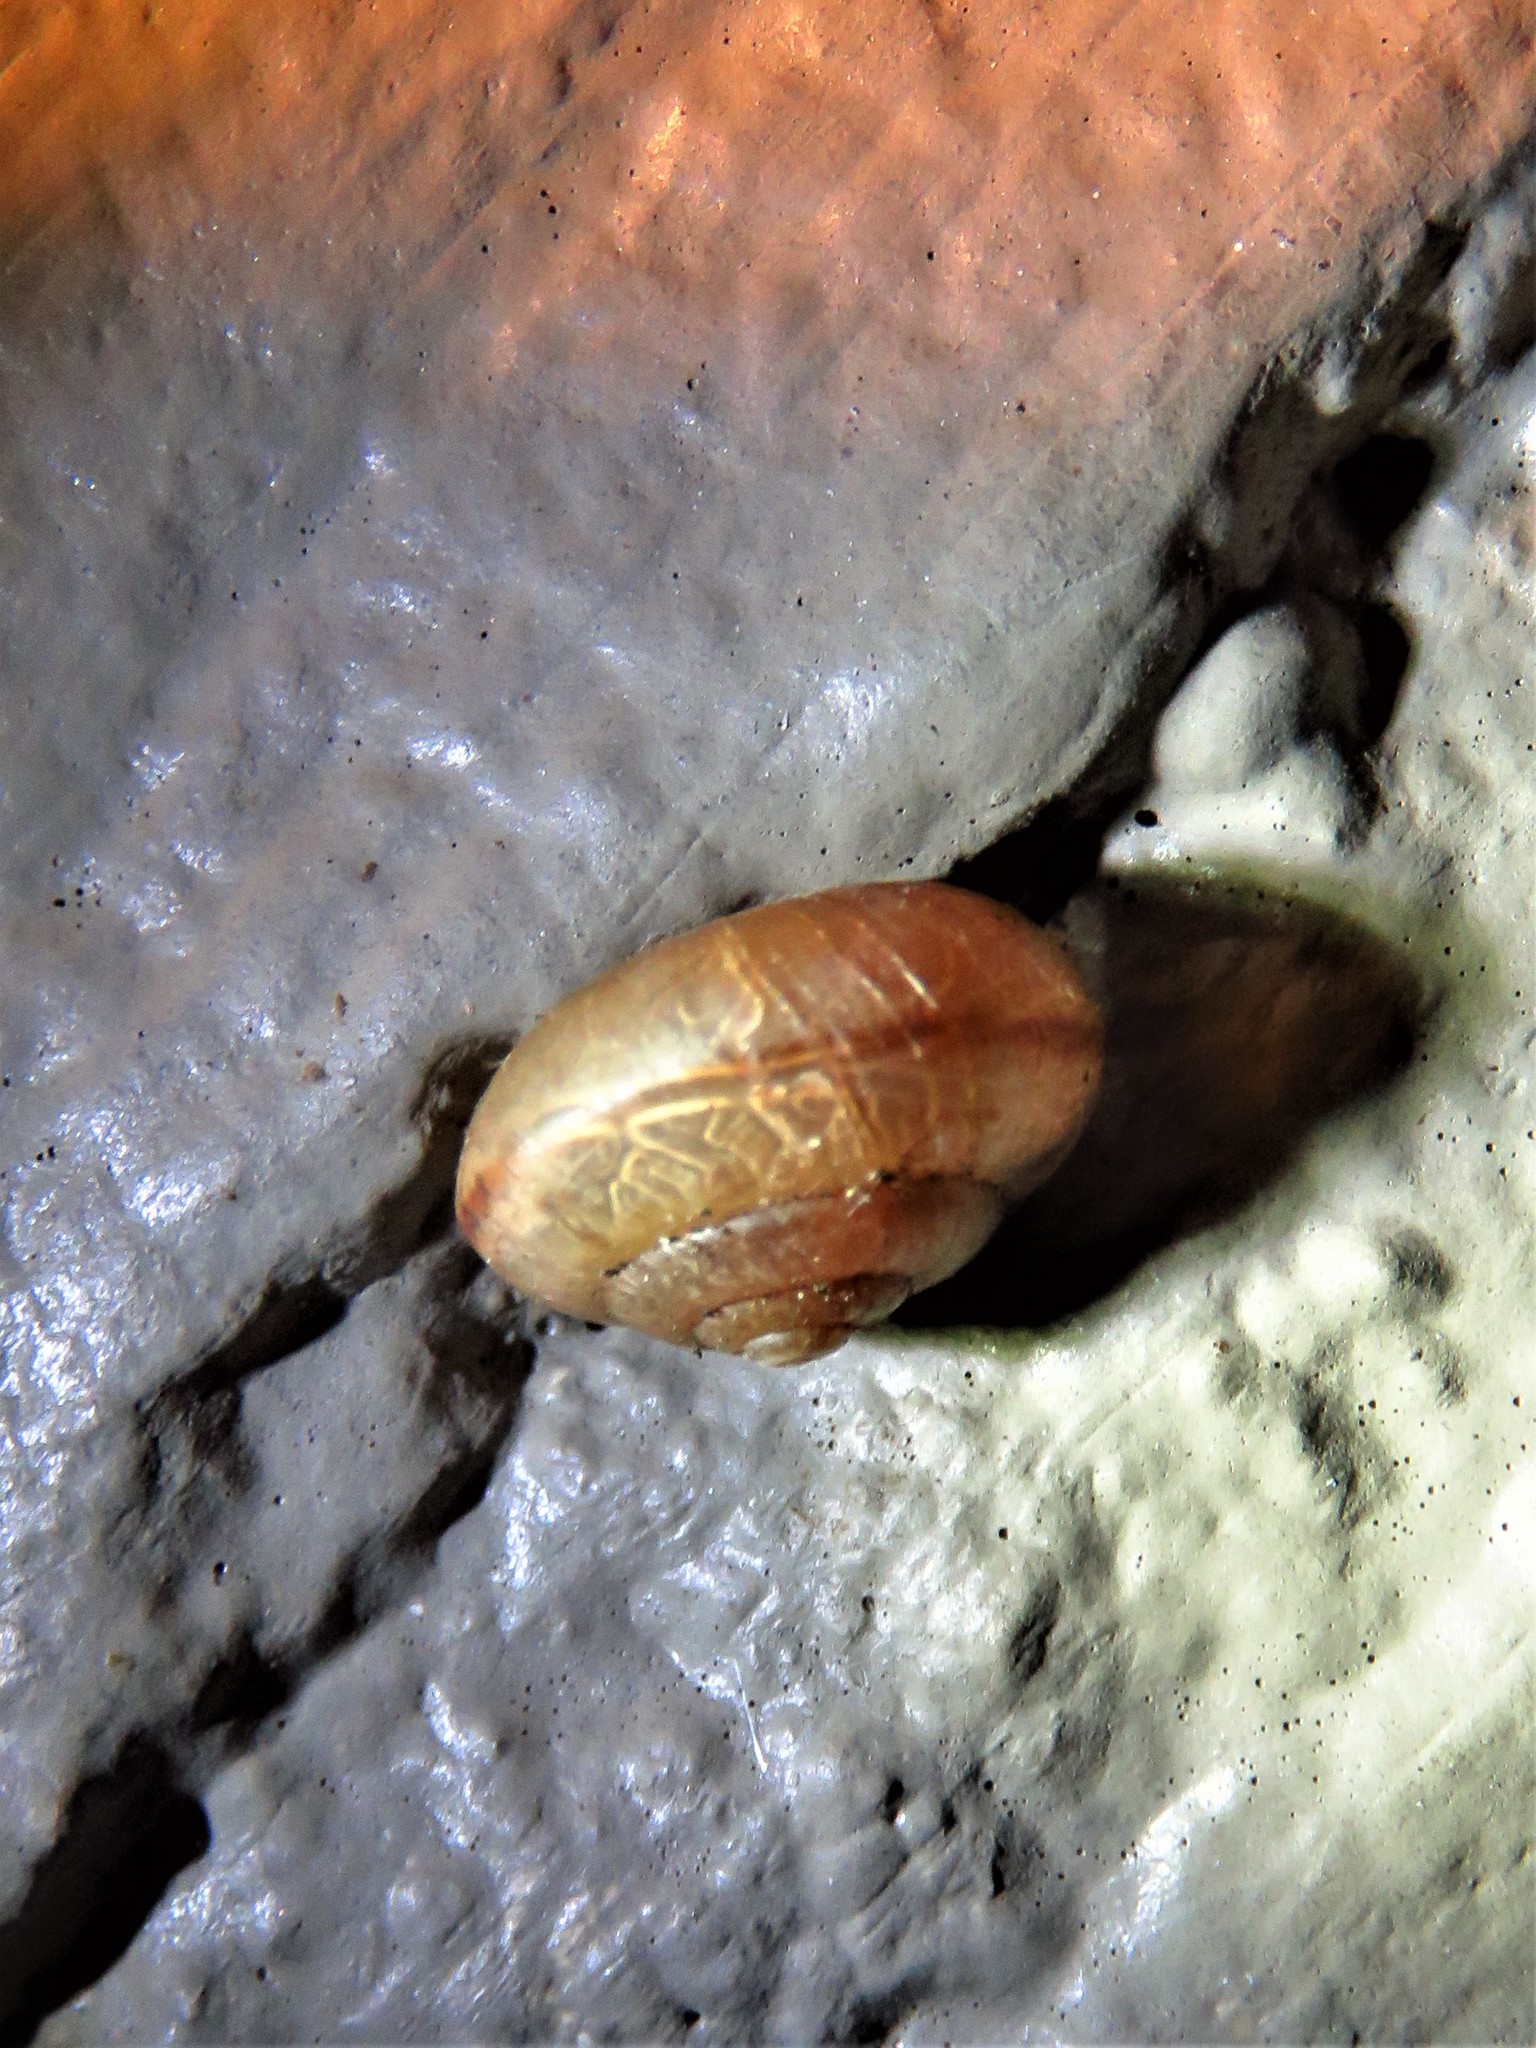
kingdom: Animalia
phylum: Mollusca
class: Gastropoda
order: Stylommatophora
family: Camaenidae
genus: Bradybaena
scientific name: Bradybaena similaris
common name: Asian trampsnail
